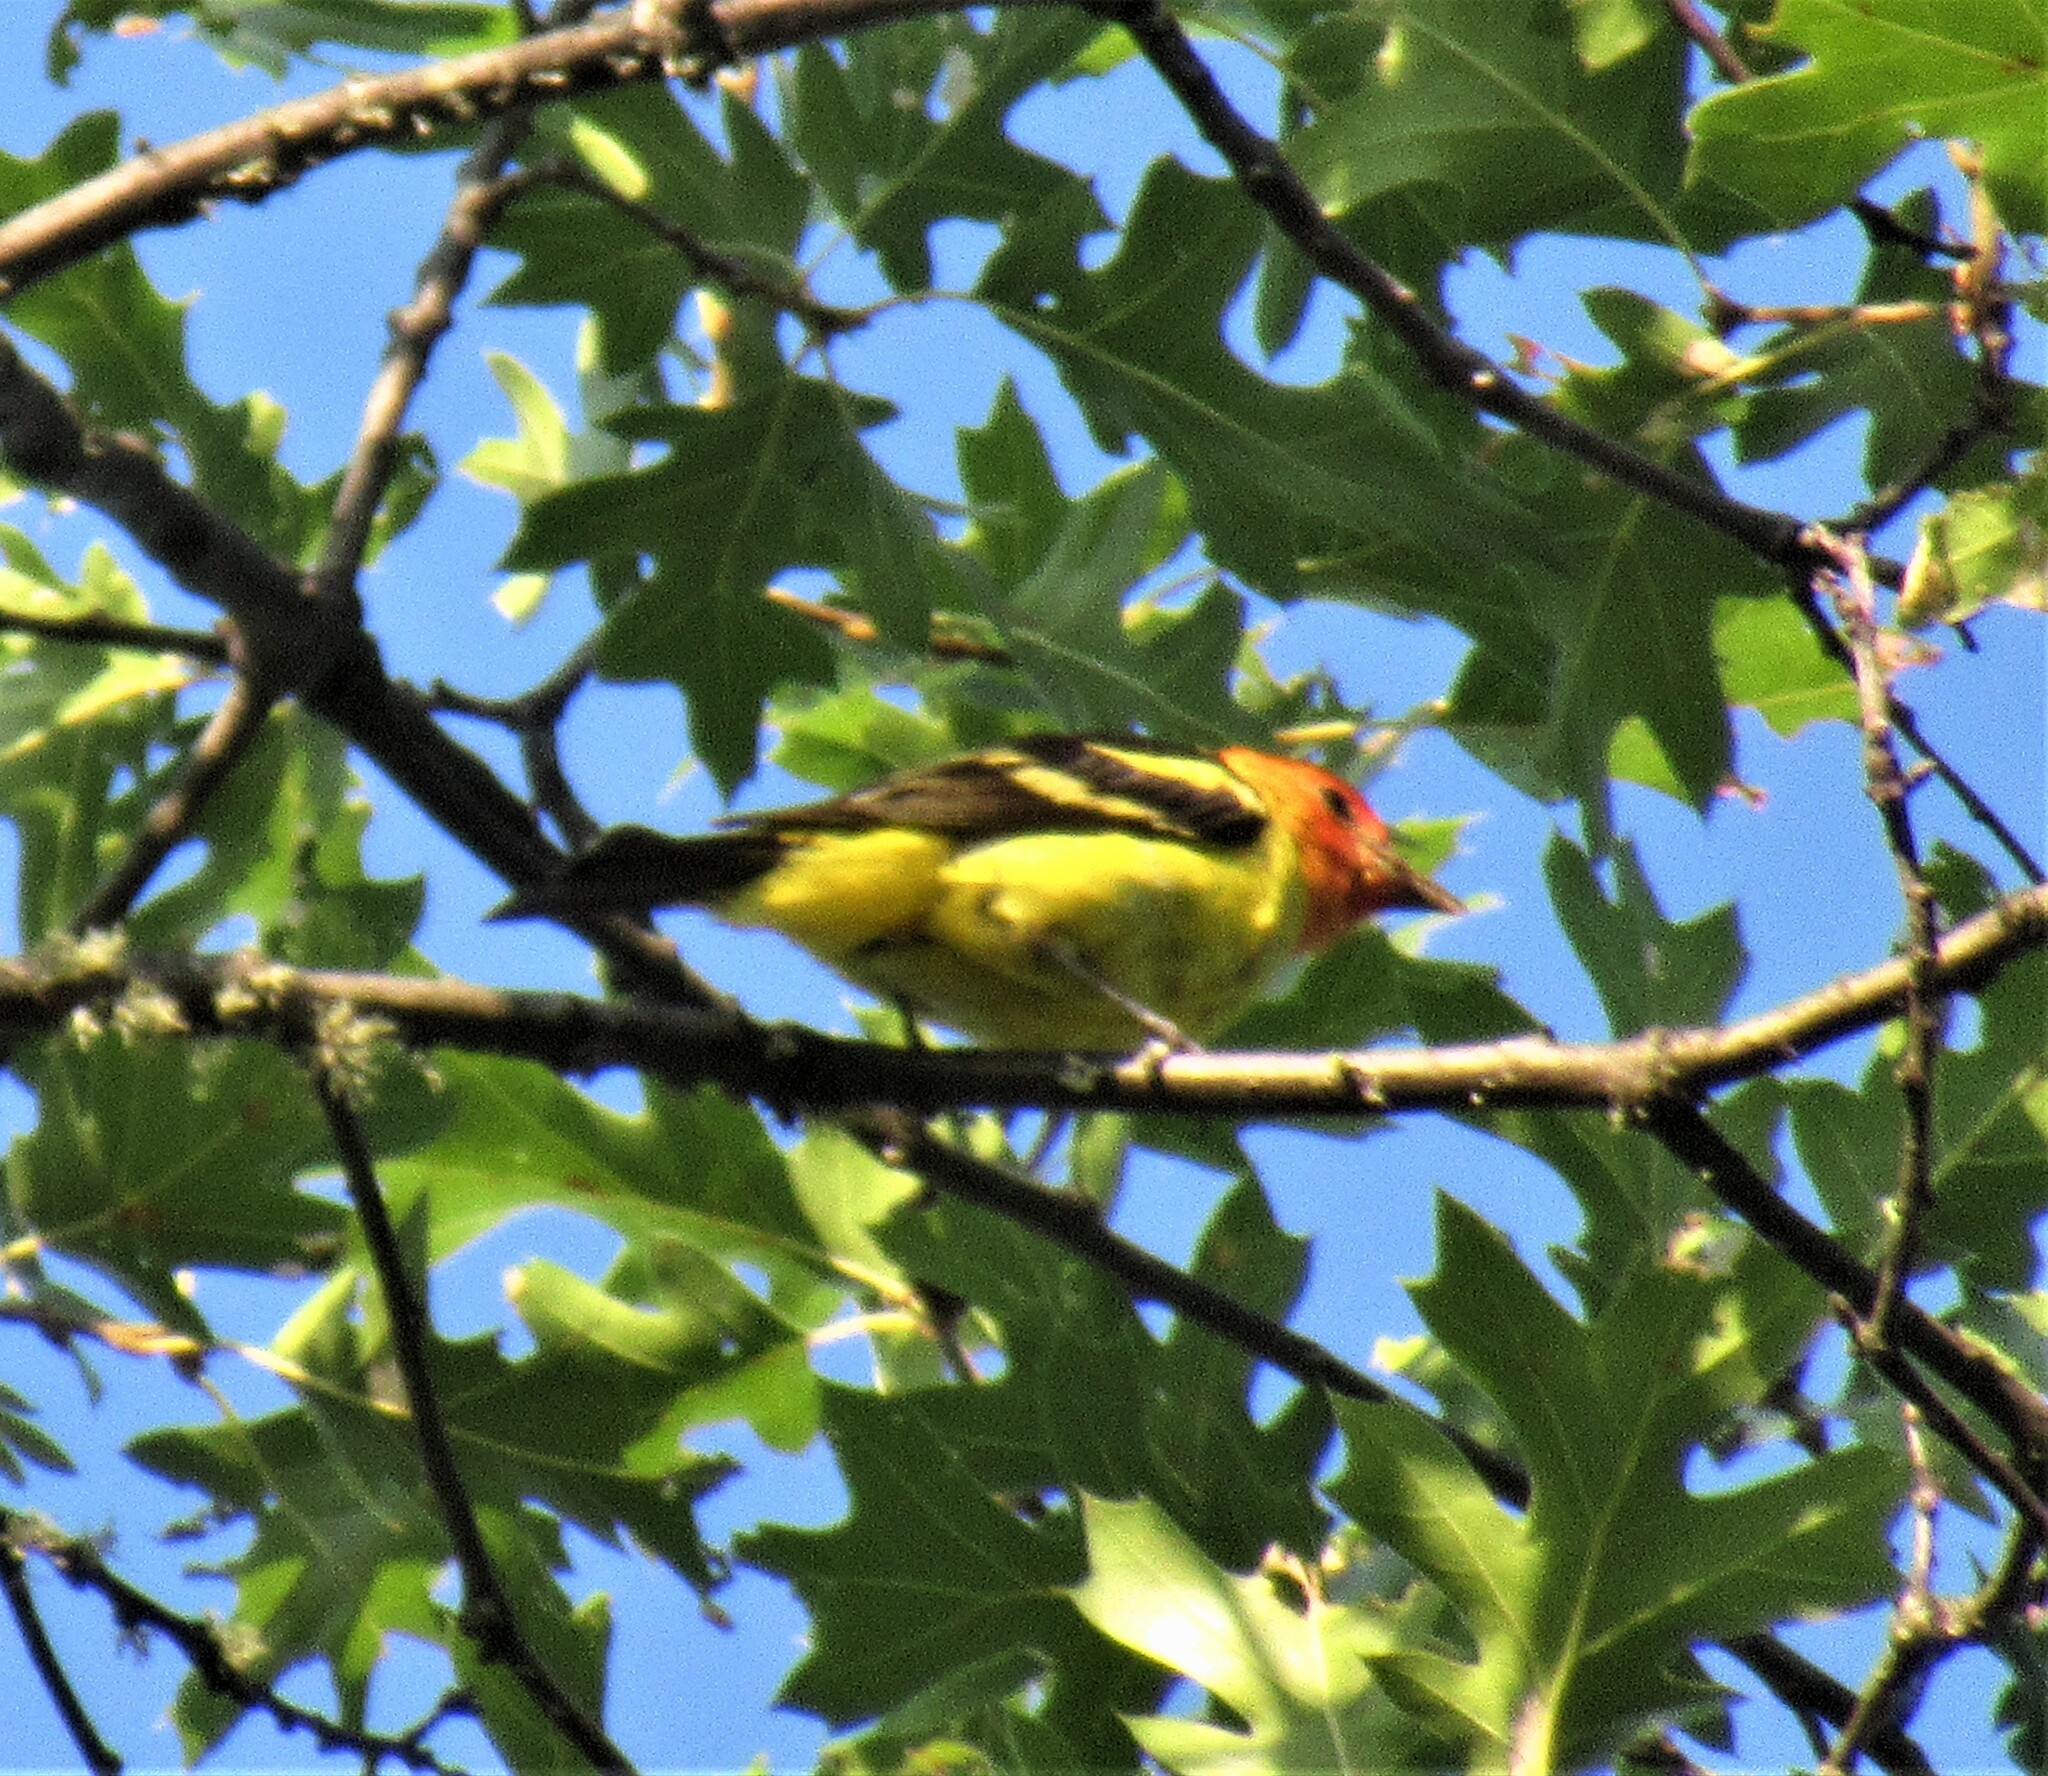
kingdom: Animalia
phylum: Chordata
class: Aves
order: Passeriformes
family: Cardinalidae
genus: Piranga
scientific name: Piranga ludoviciana
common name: Western tanager
